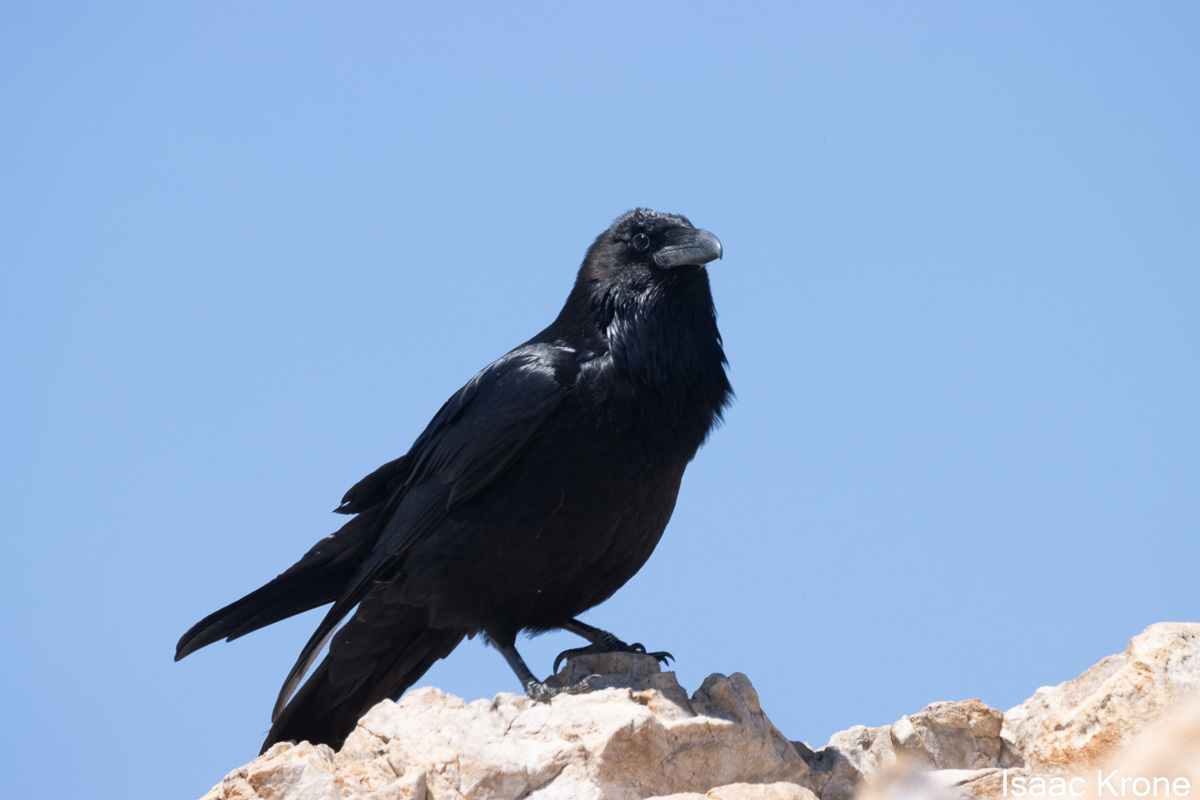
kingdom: Animalia
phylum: Chordata
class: Aves
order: Passeriformes
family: Corvidae
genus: Corvus
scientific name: Corvus corax
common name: Common raven
